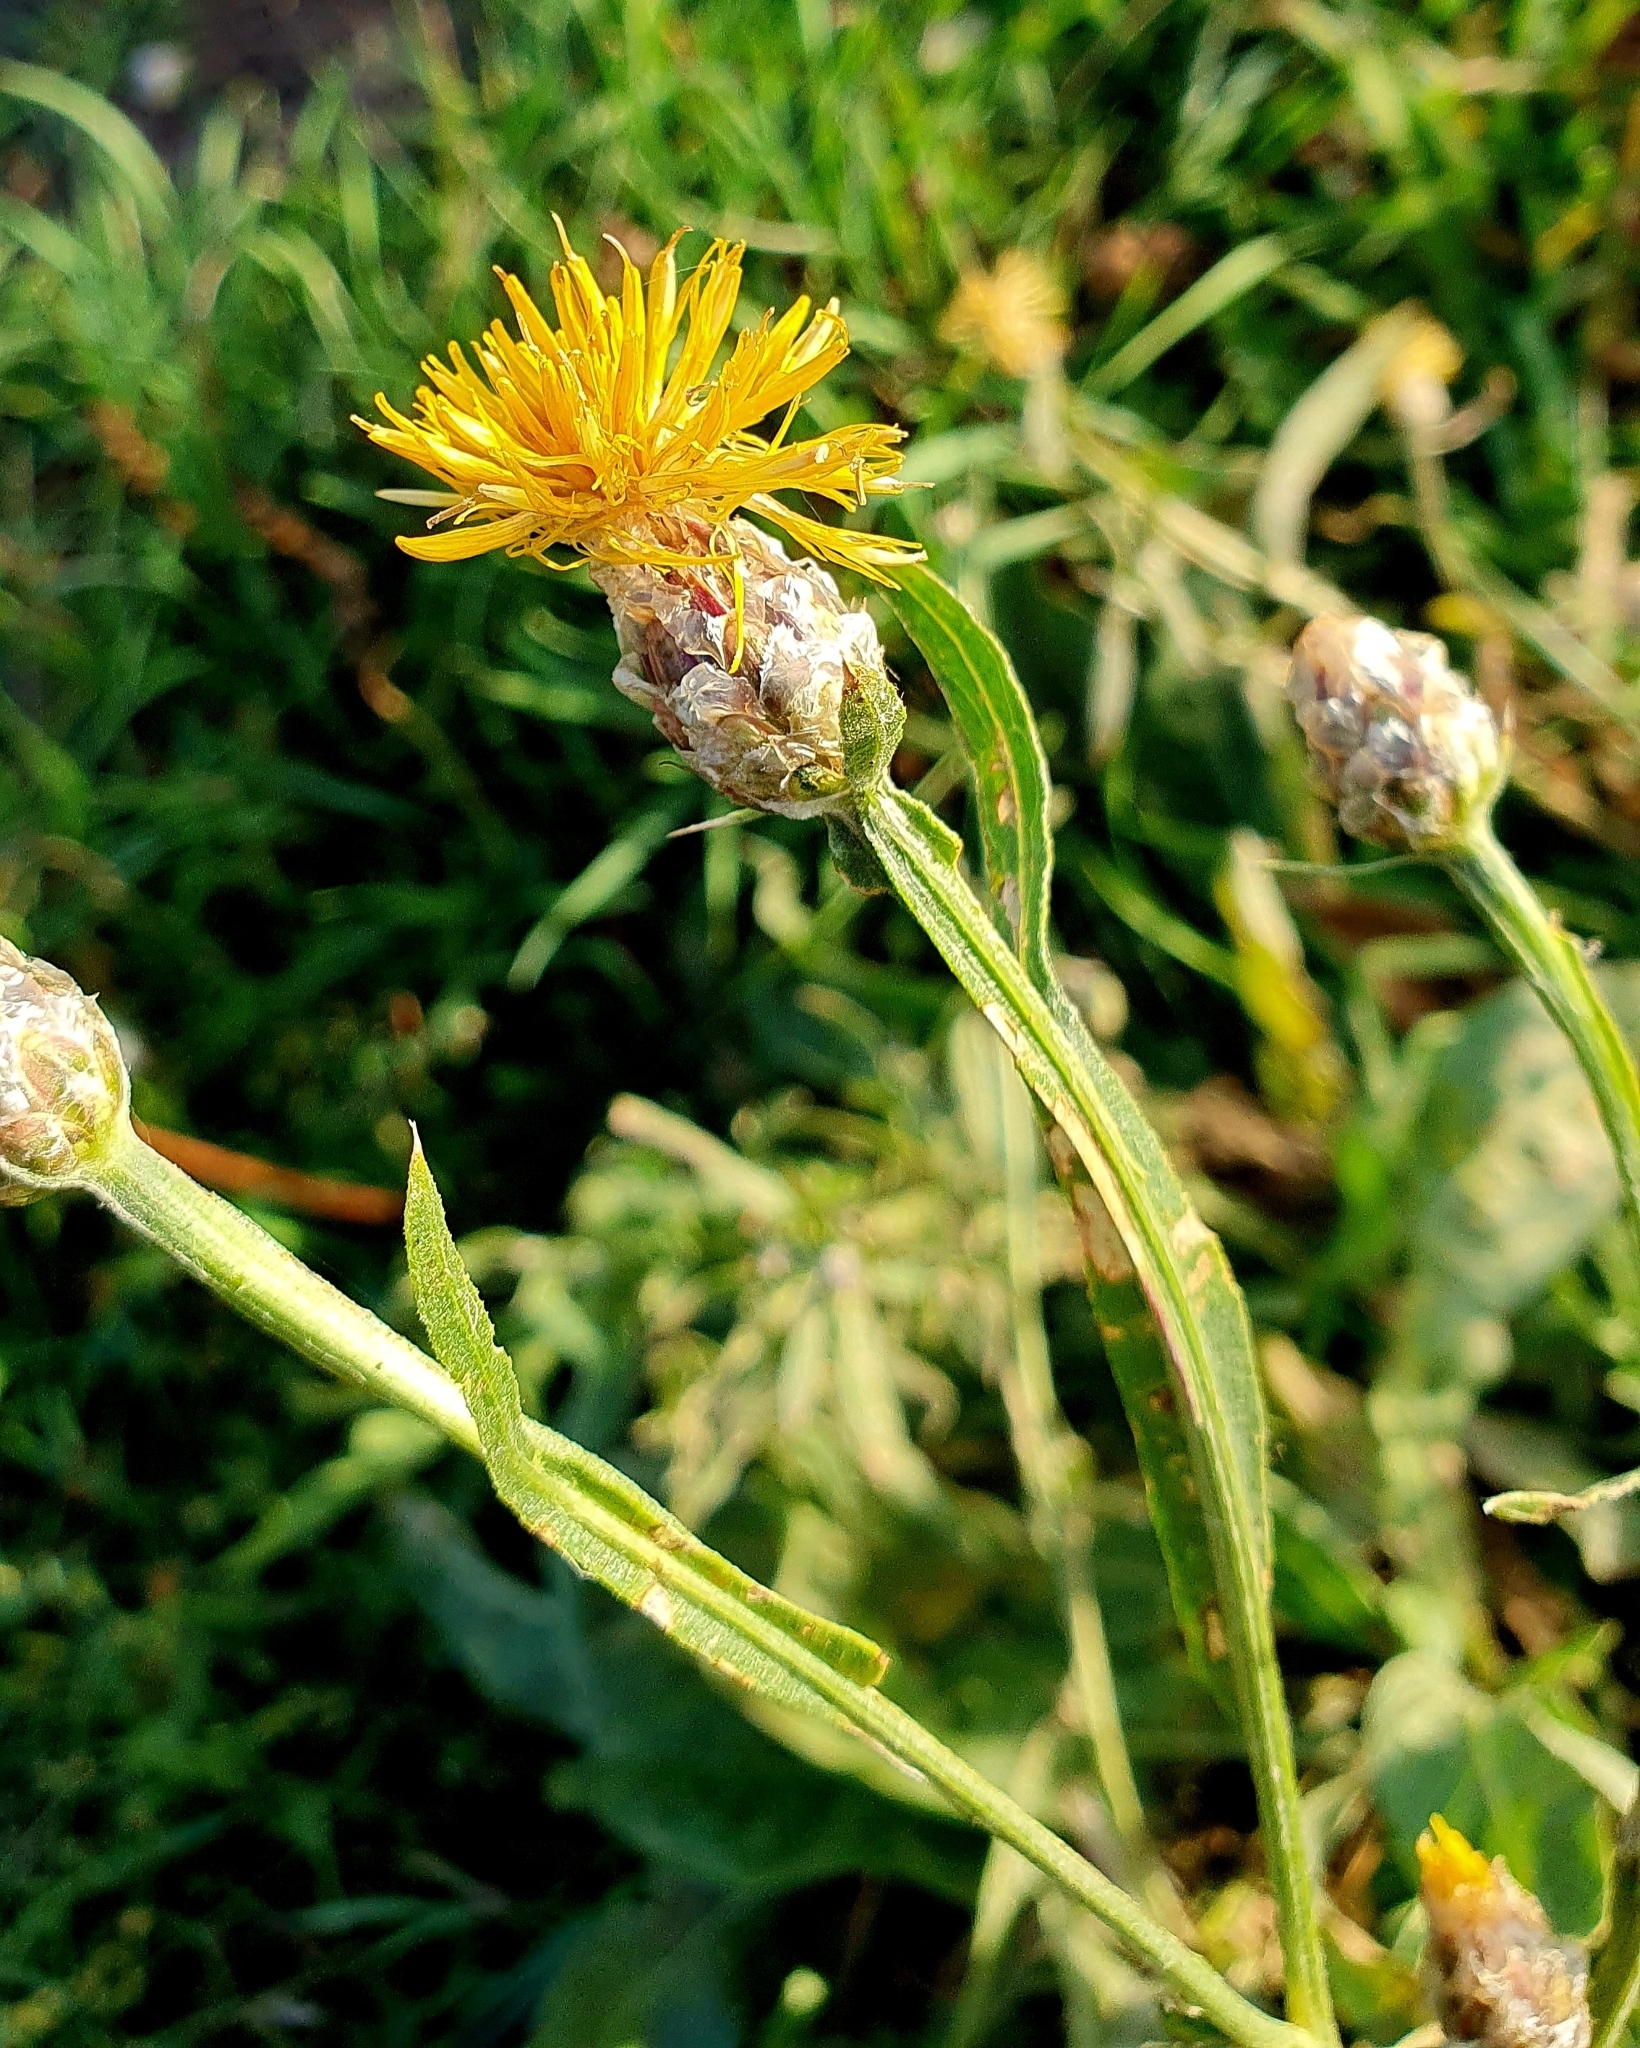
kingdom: Plantae
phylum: Tracheophyta
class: Magnoliopsida
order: Asterales
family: Asteraceae
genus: Centaurea
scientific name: Centaurea glastifolia
